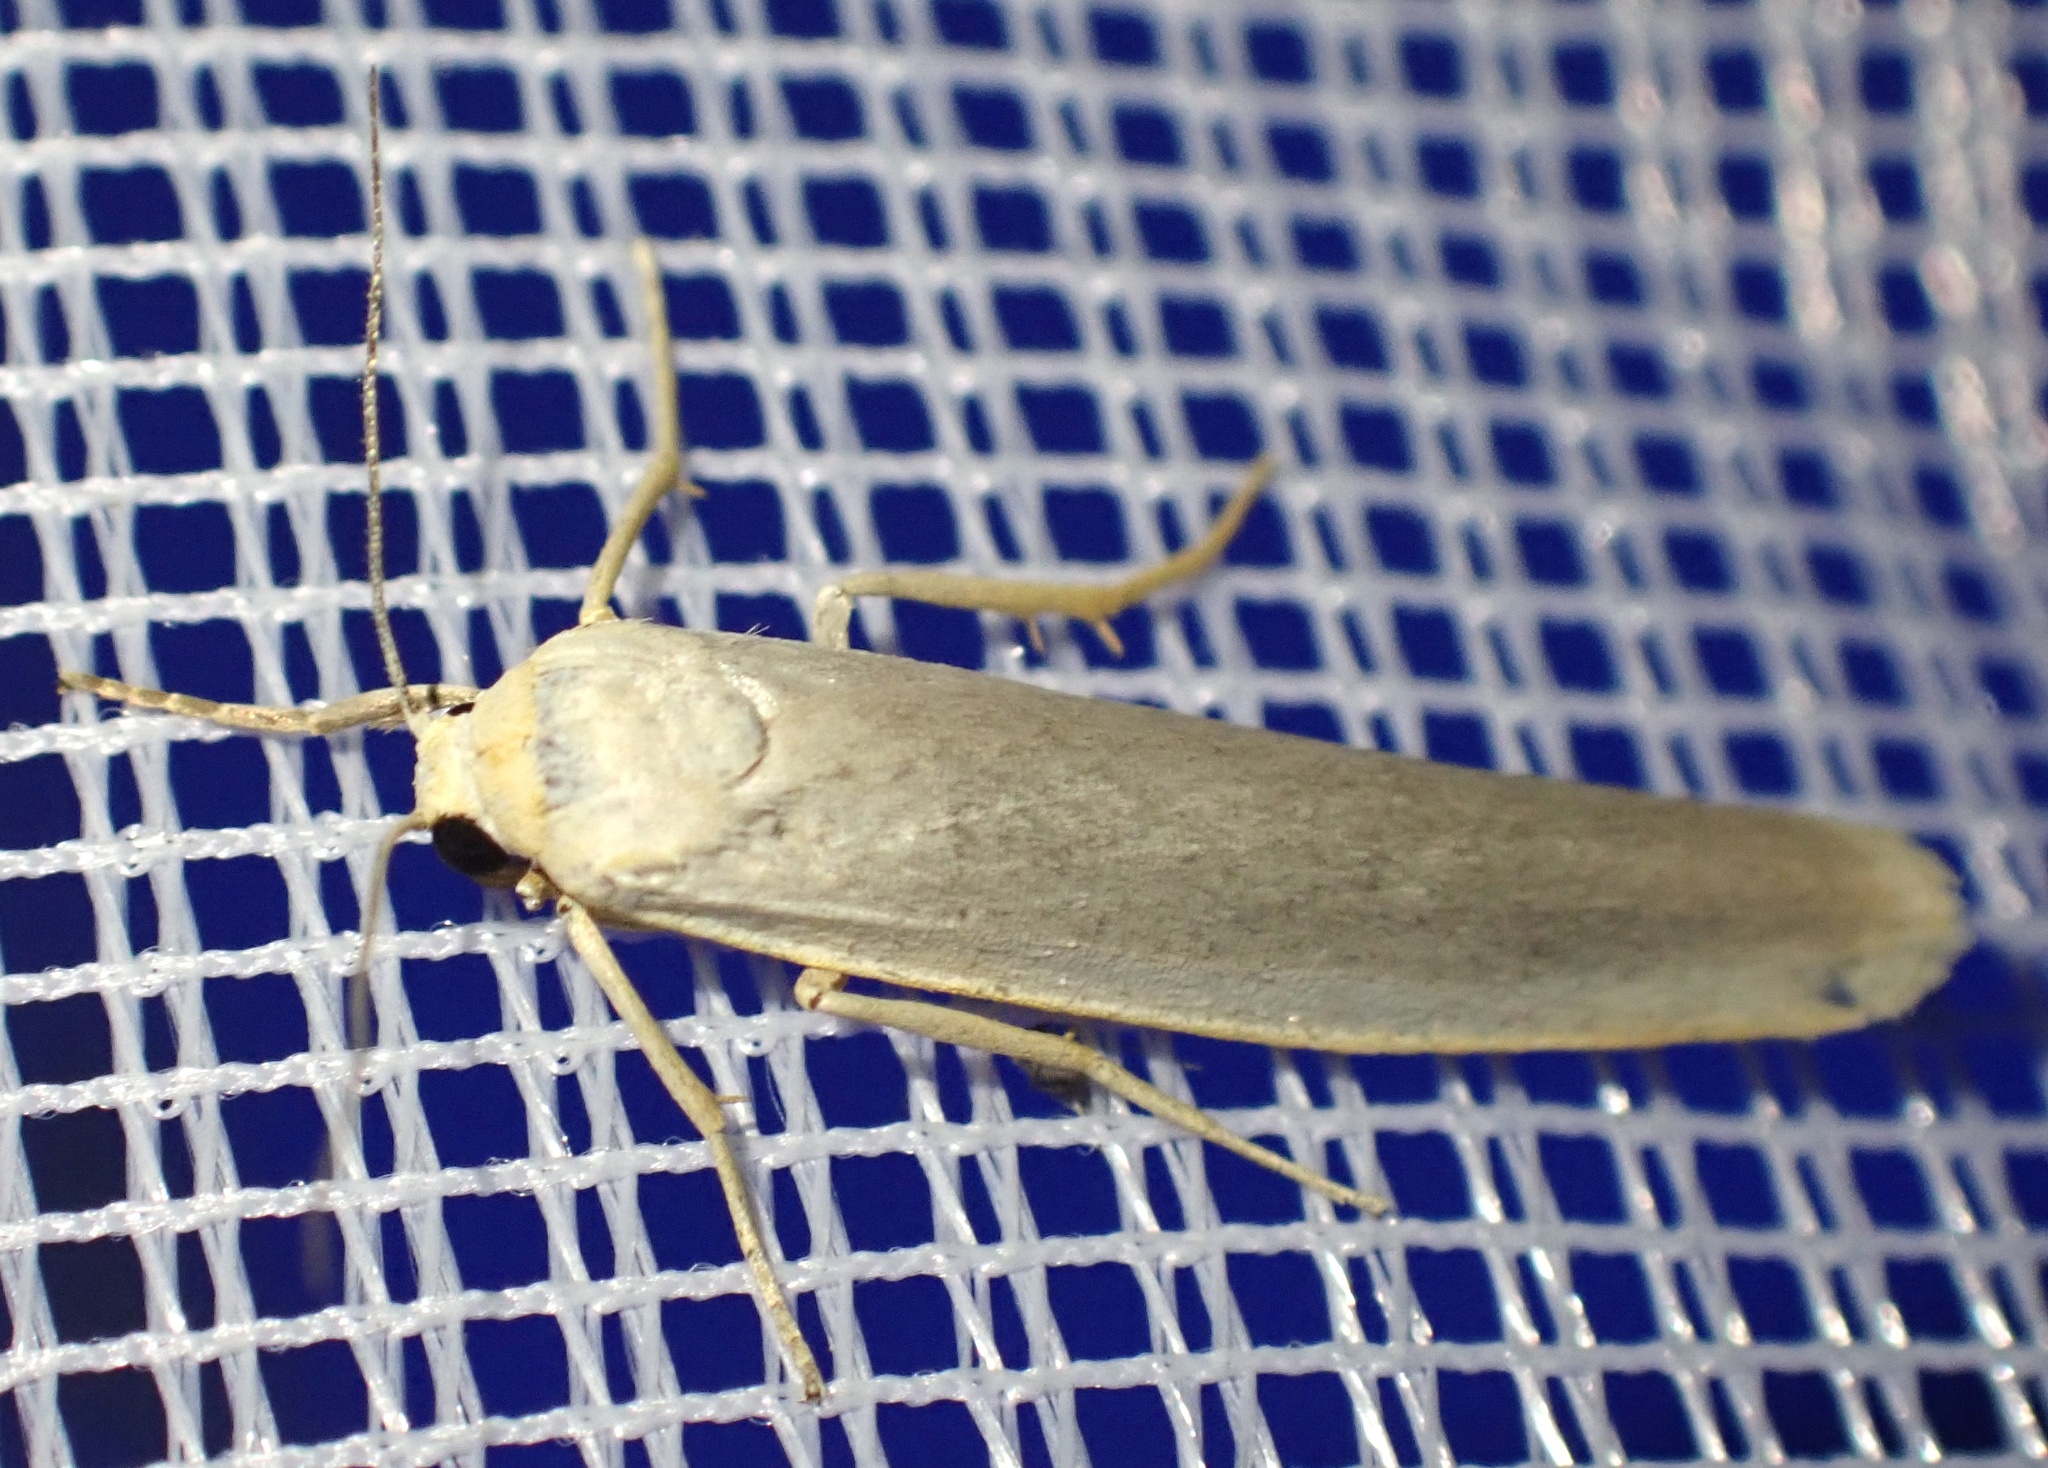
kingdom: Animalia
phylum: Arthropoda
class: Insecta
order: Lepidoptera
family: Erebidae
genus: Eilema
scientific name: Eilema caniola
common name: Hoary footman
